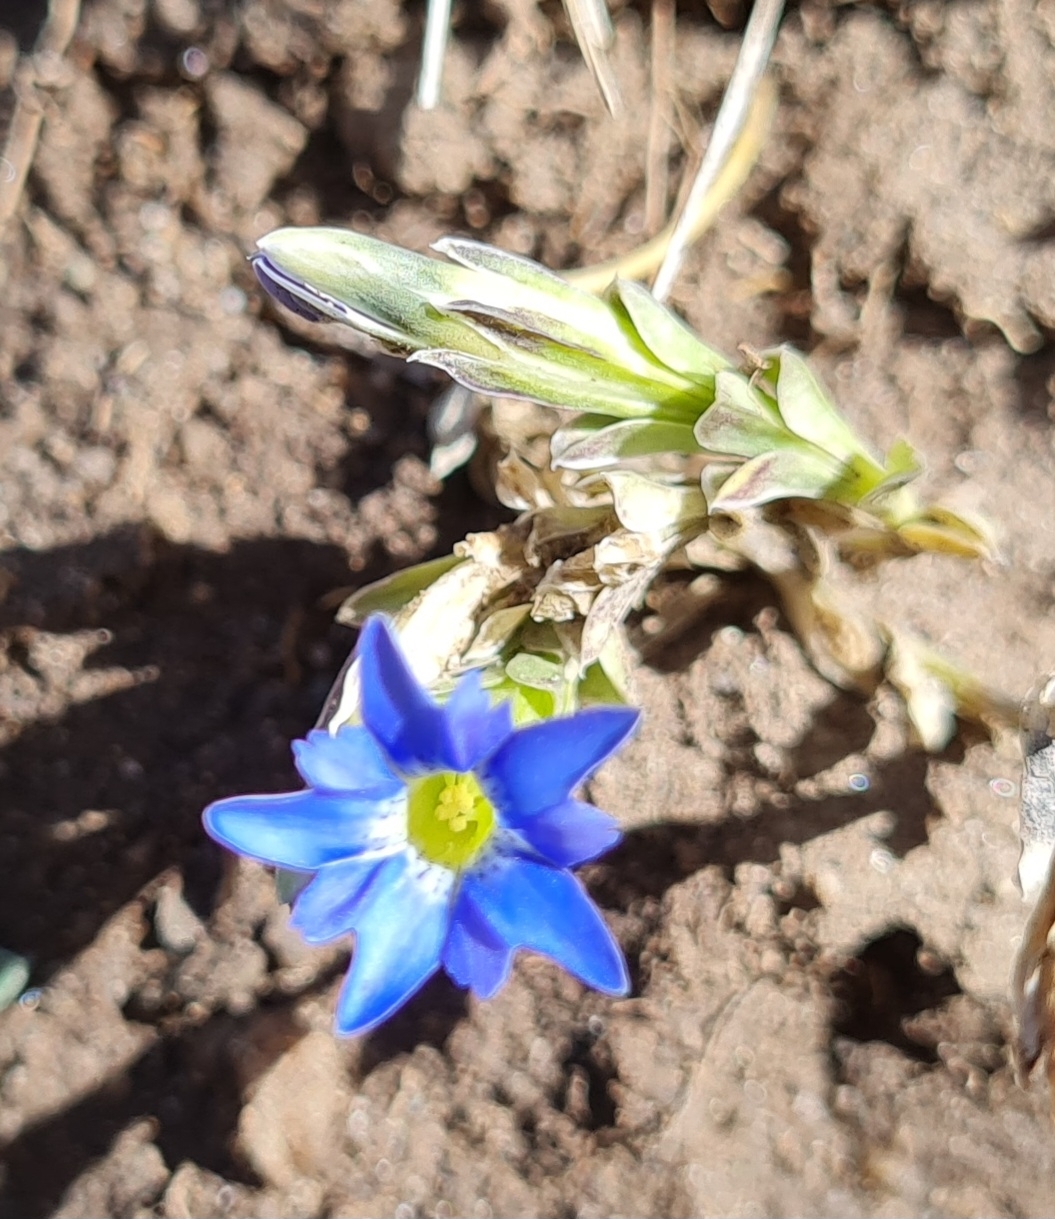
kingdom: Plantae
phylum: Tracheophyta
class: Magnoliopsida
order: Gentianales
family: Gentianaceae
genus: Gentiana
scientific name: Gentiana prostrata
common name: Moss gentian
